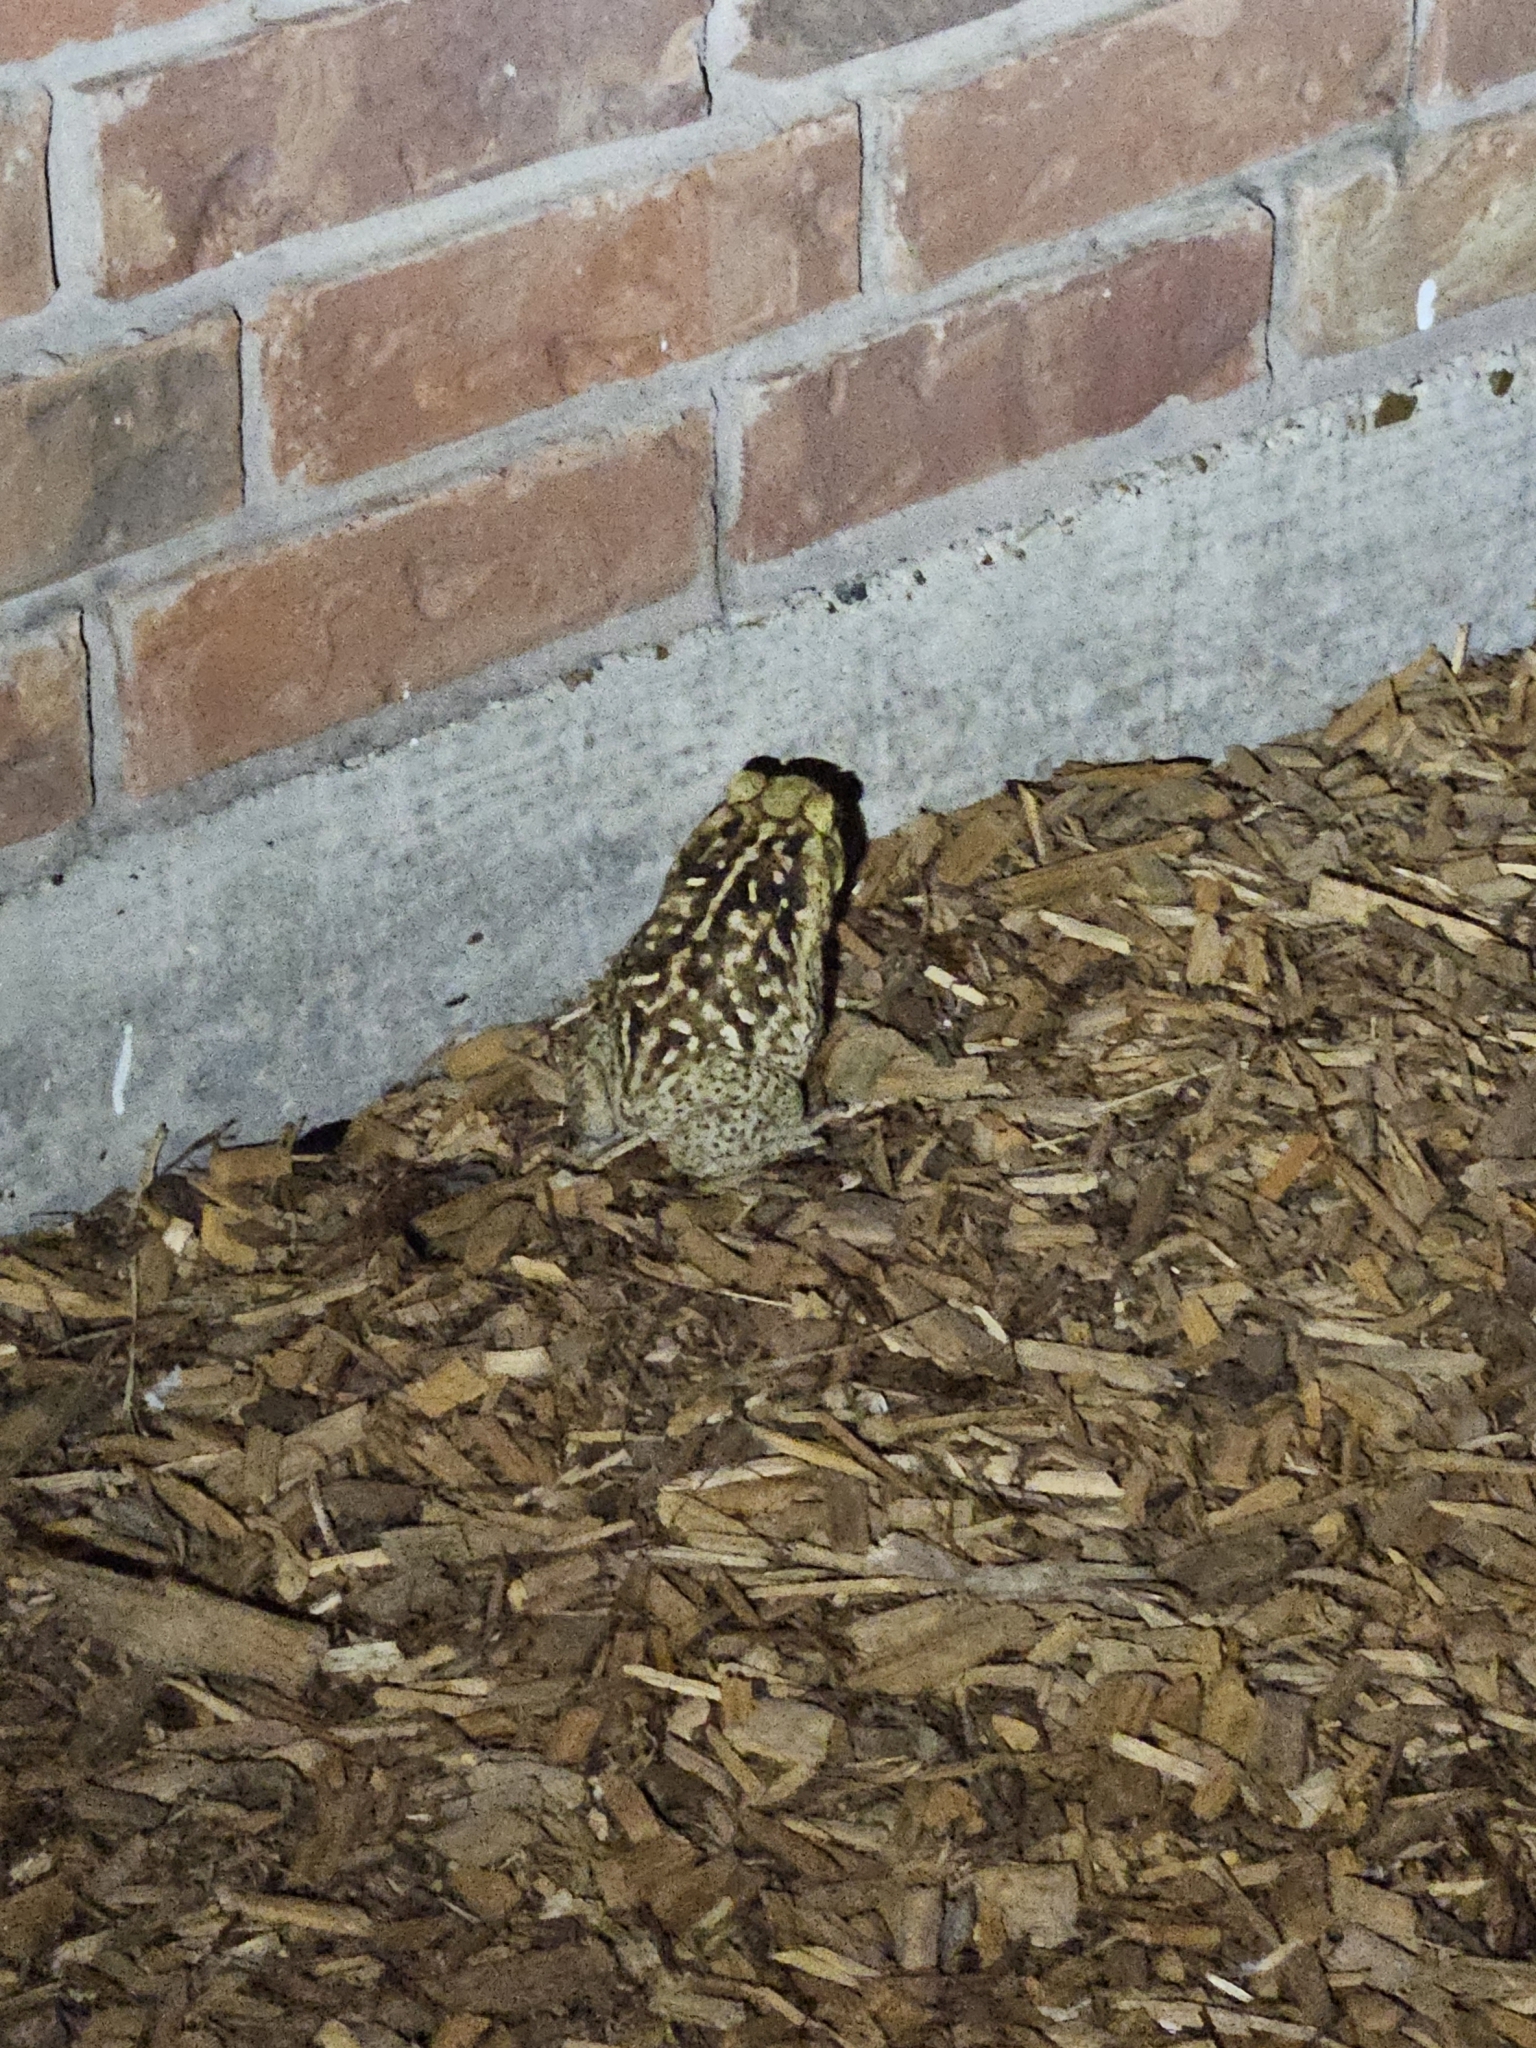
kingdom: Animalia
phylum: Chordata
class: Amphibia
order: Anura
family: Bufonidae
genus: Rhinella
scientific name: Rhinella horribilis
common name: Mesoamerican cane toad
